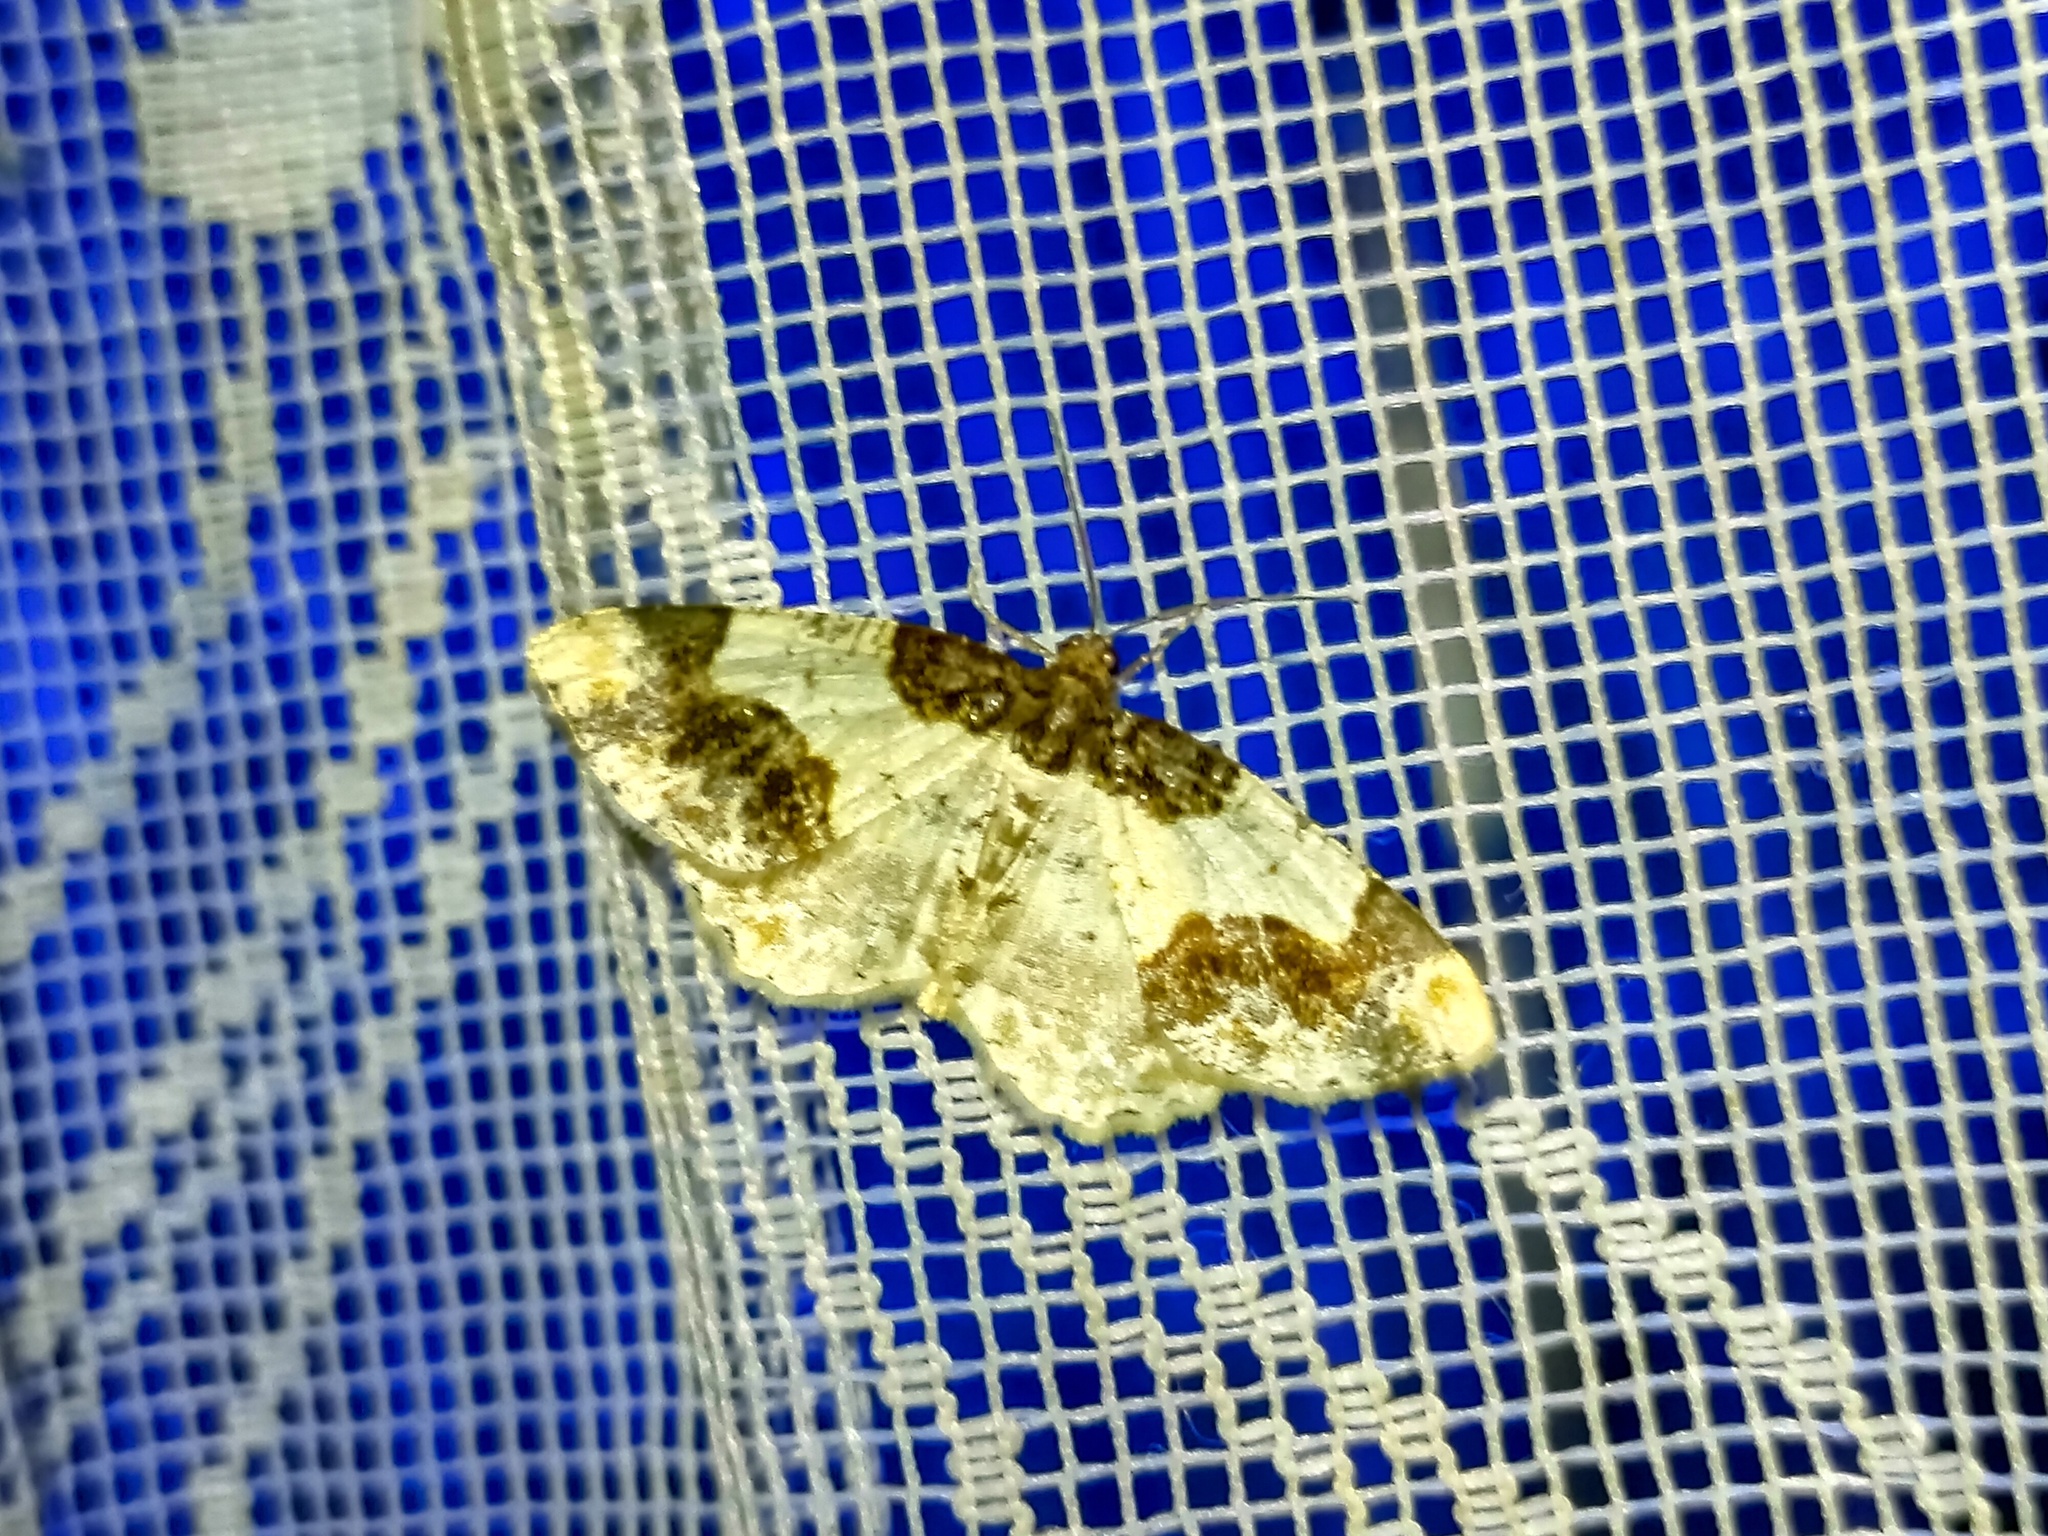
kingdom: Animalia
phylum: Arthropoda
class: Insecta
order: Lepidoptera
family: Geometridae
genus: Ligdia
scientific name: Ligdia adustata
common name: Scorched carpet
